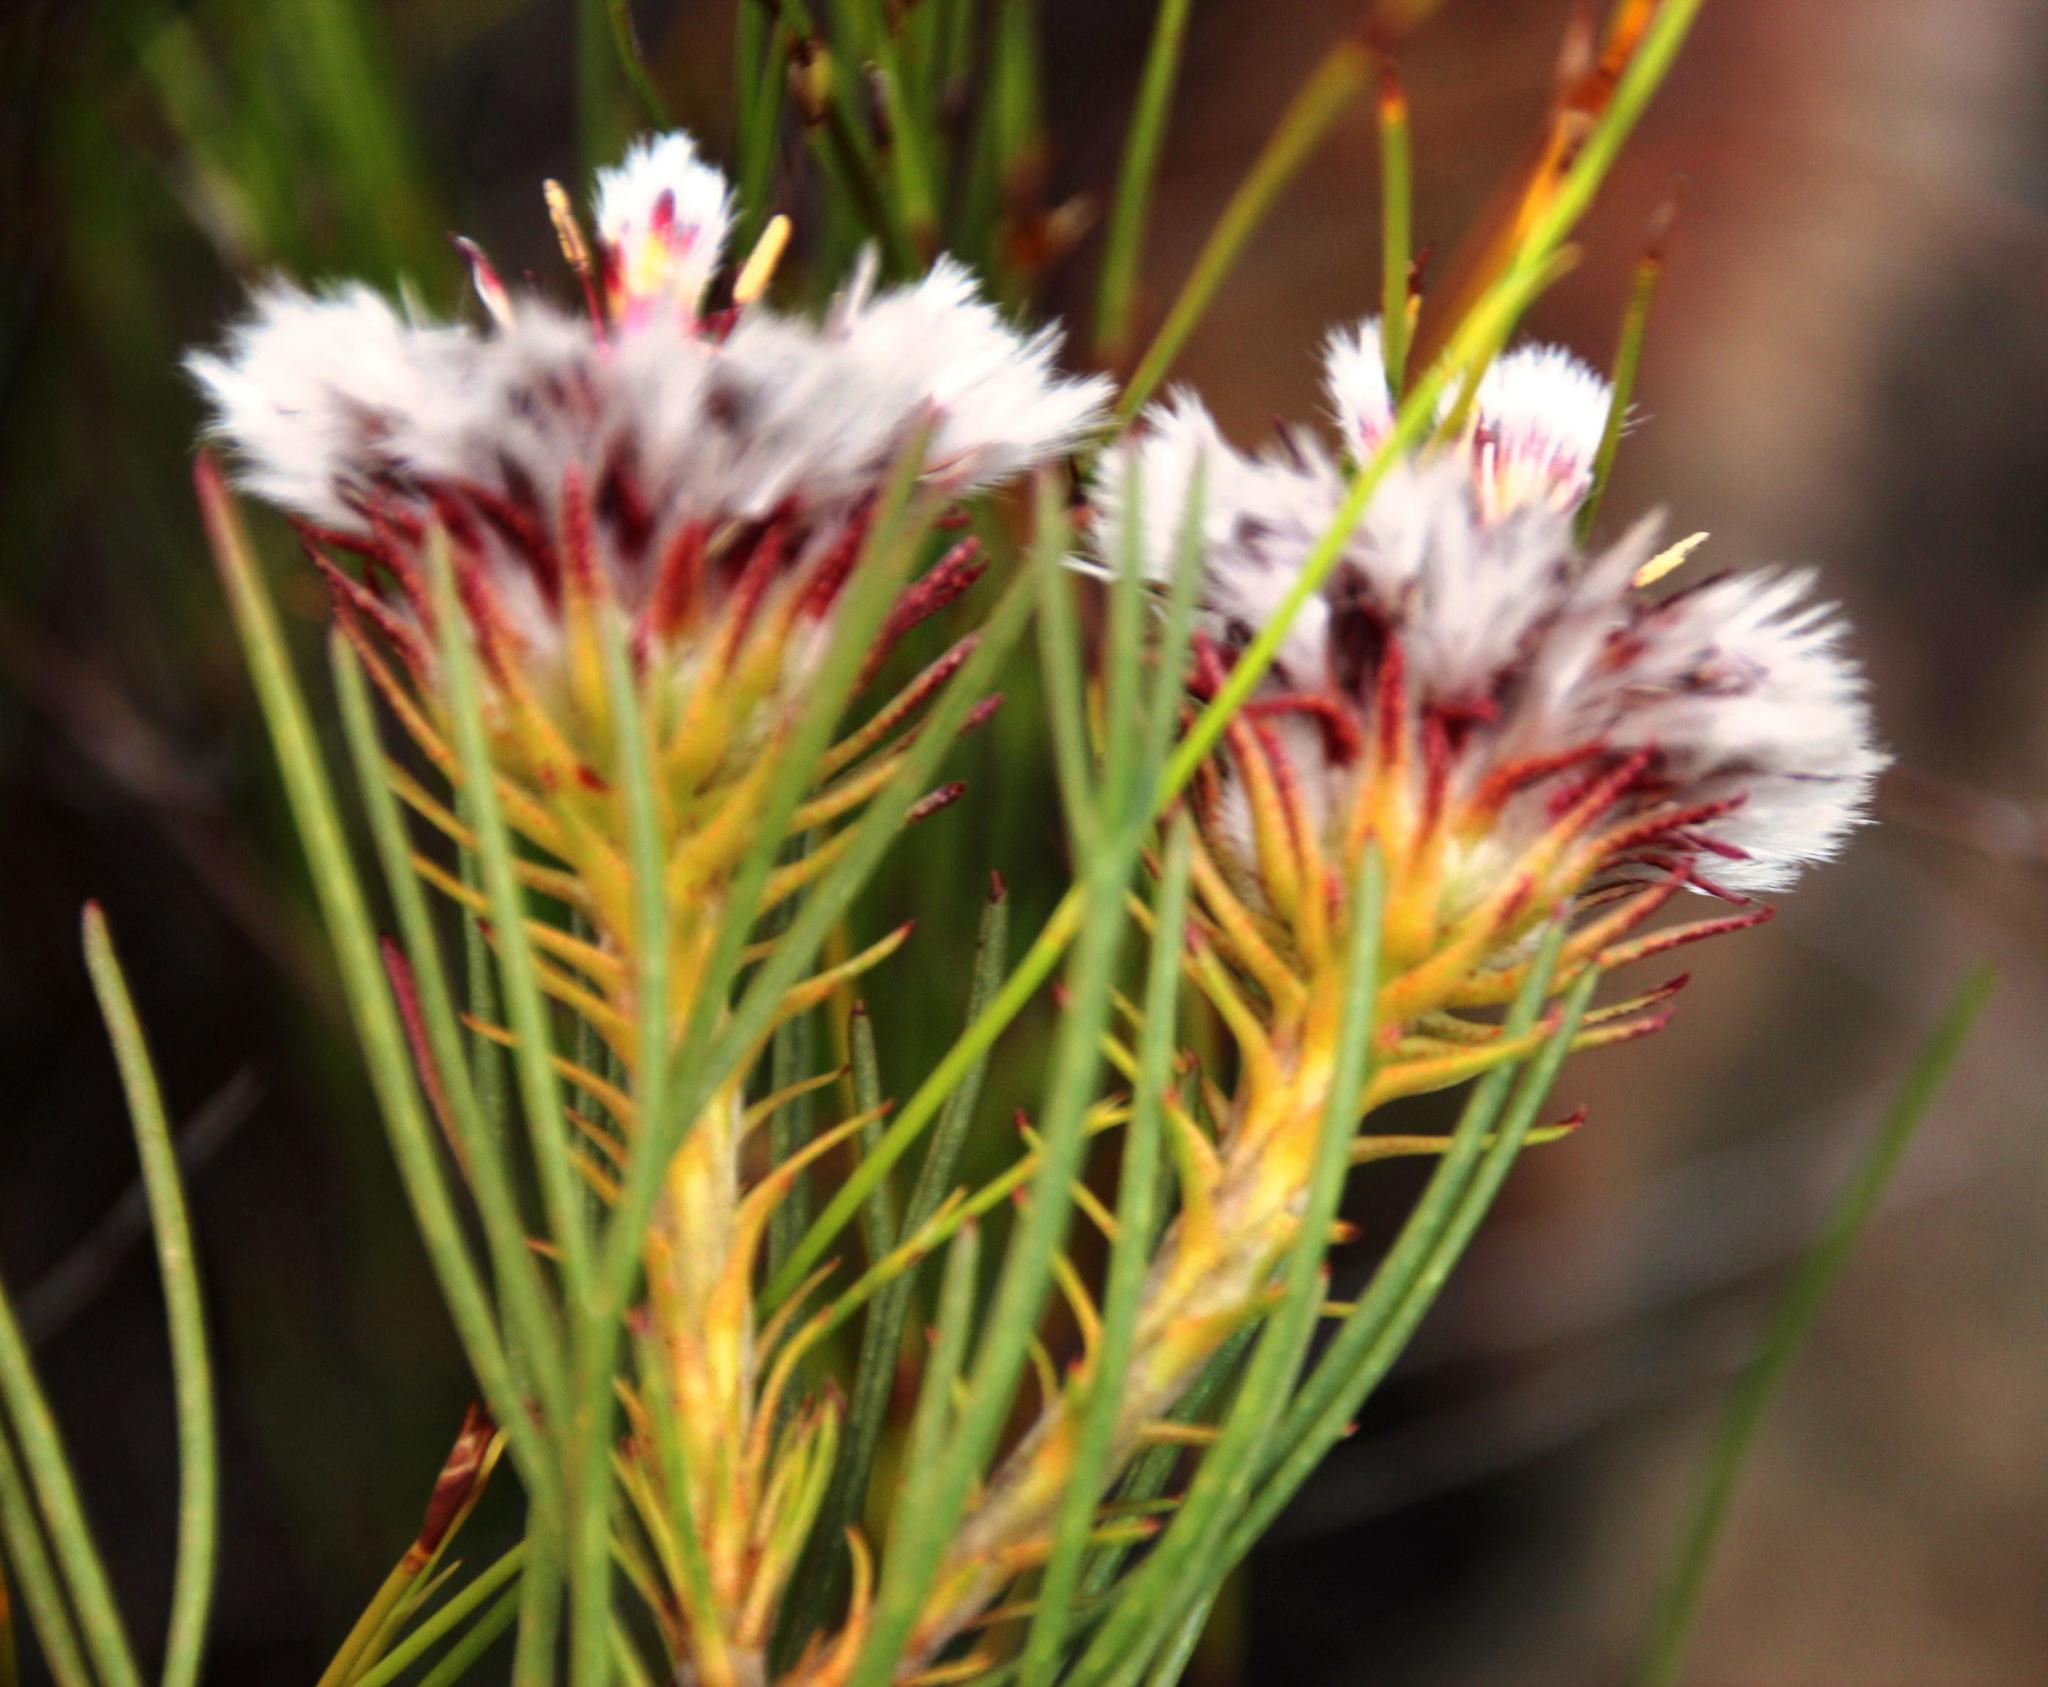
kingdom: Plantae
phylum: Tracheophyta
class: Magnoliopsida
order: Proteales
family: Proteaceae
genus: Serruria
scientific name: Serruria phylicoides
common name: Bearded spiderhead
